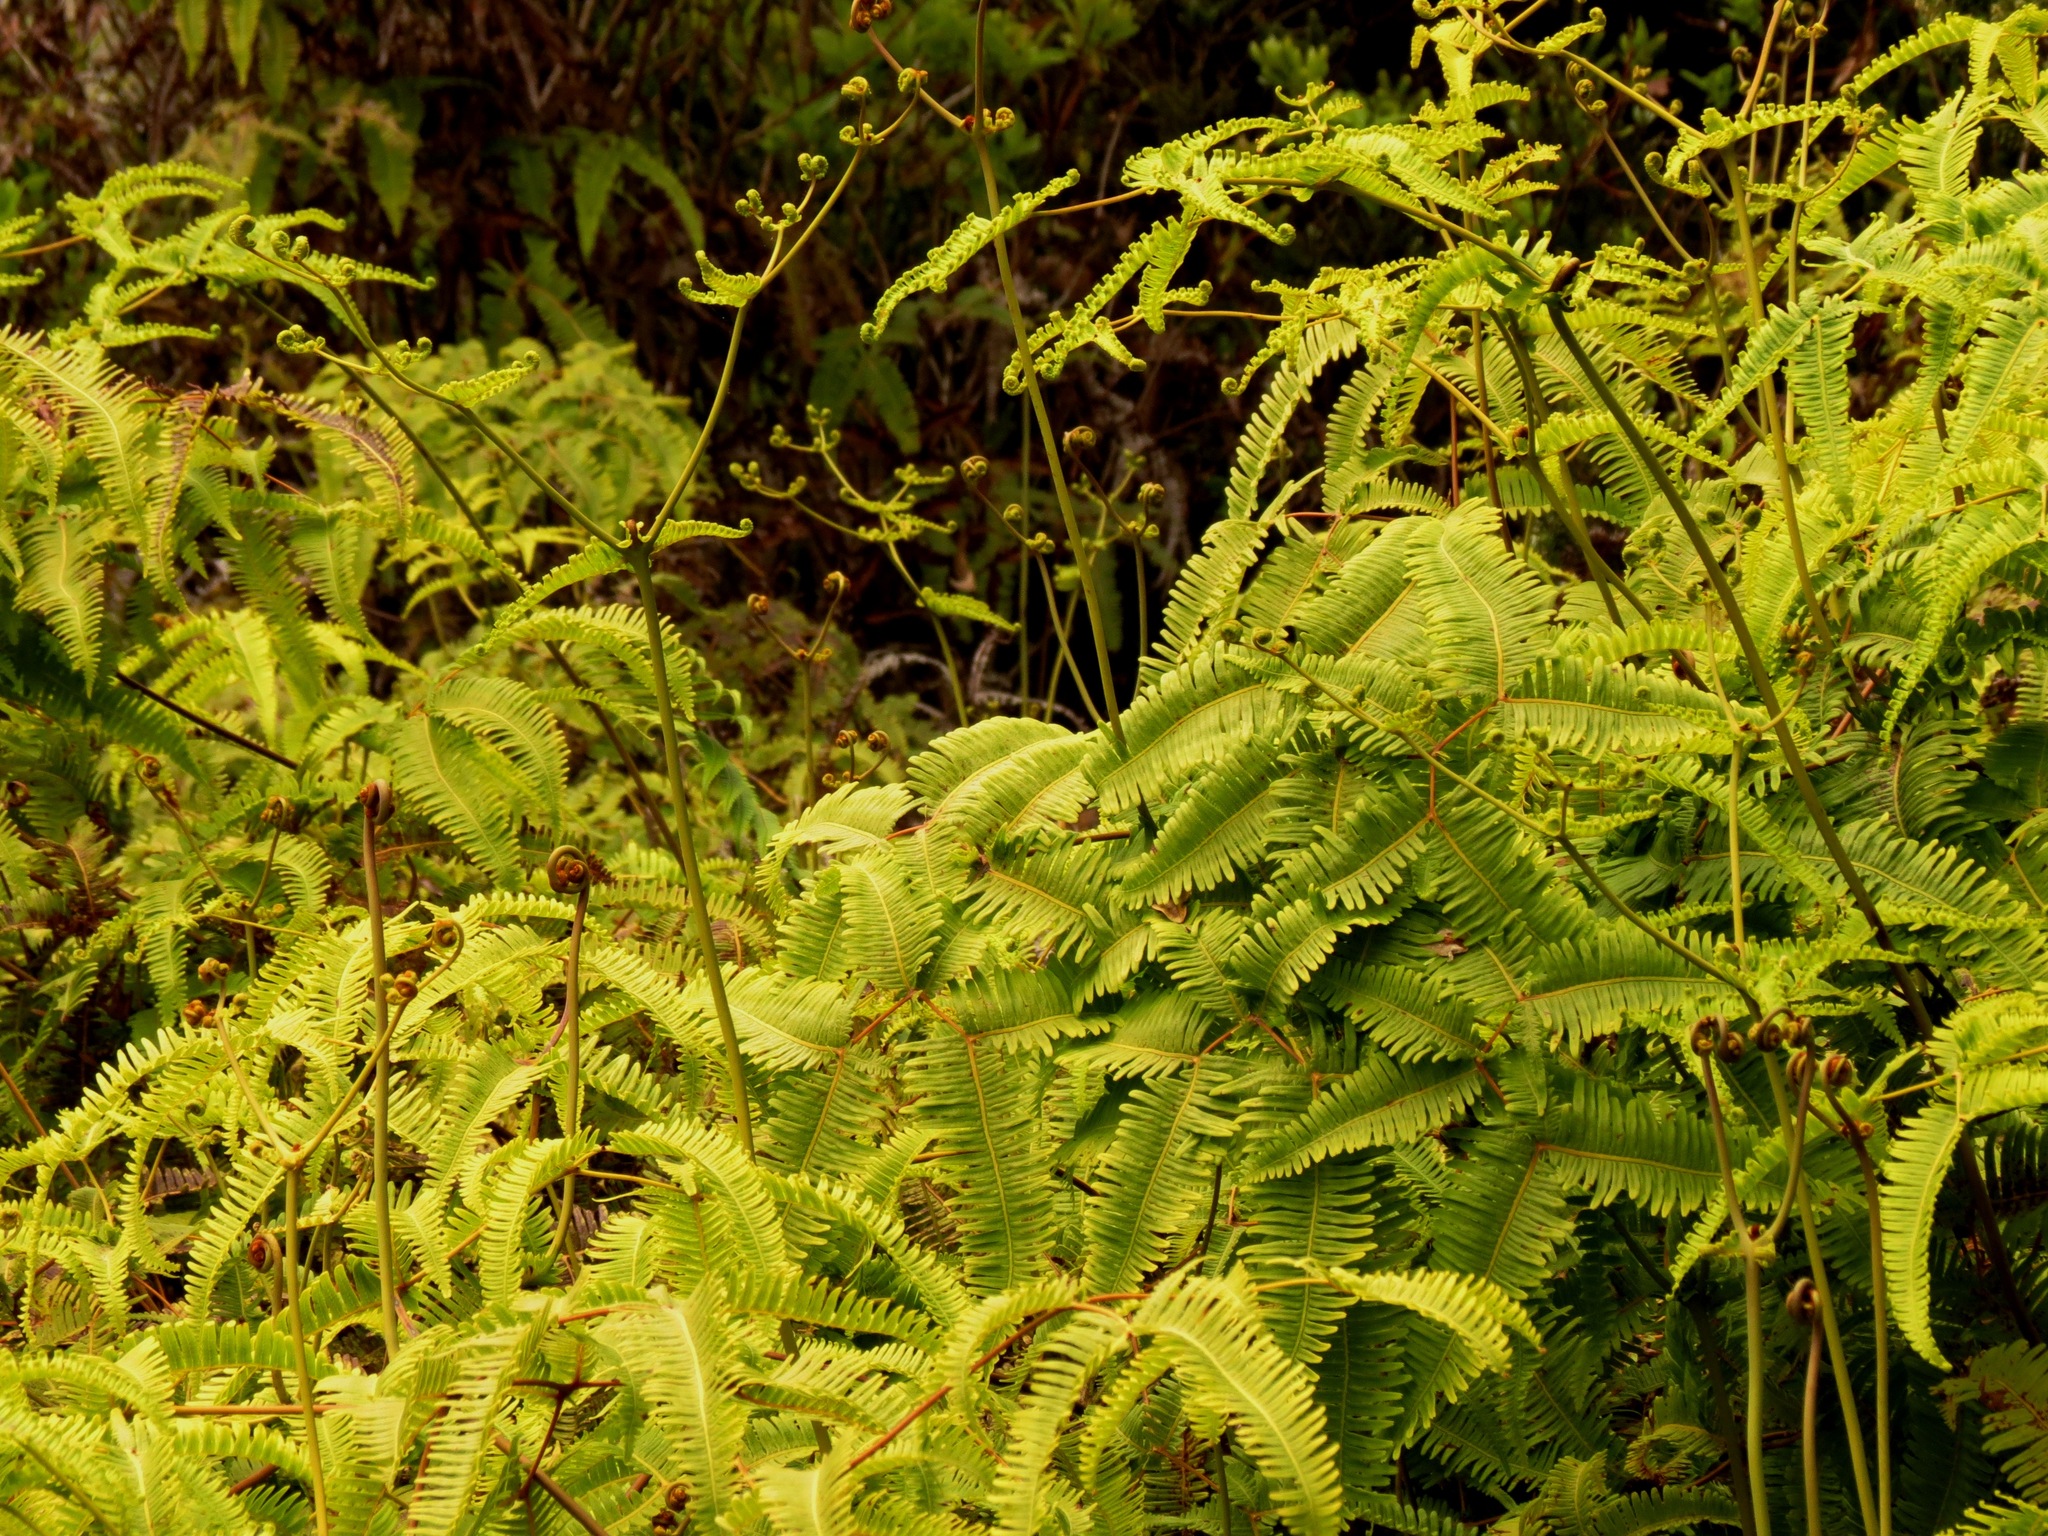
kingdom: Plantae
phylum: Tracheophyta
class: Polypodiopsida
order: Gleicheniales
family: Gleicheniaceae
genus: Dicranopteris
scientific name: Dicranopteris linearis
